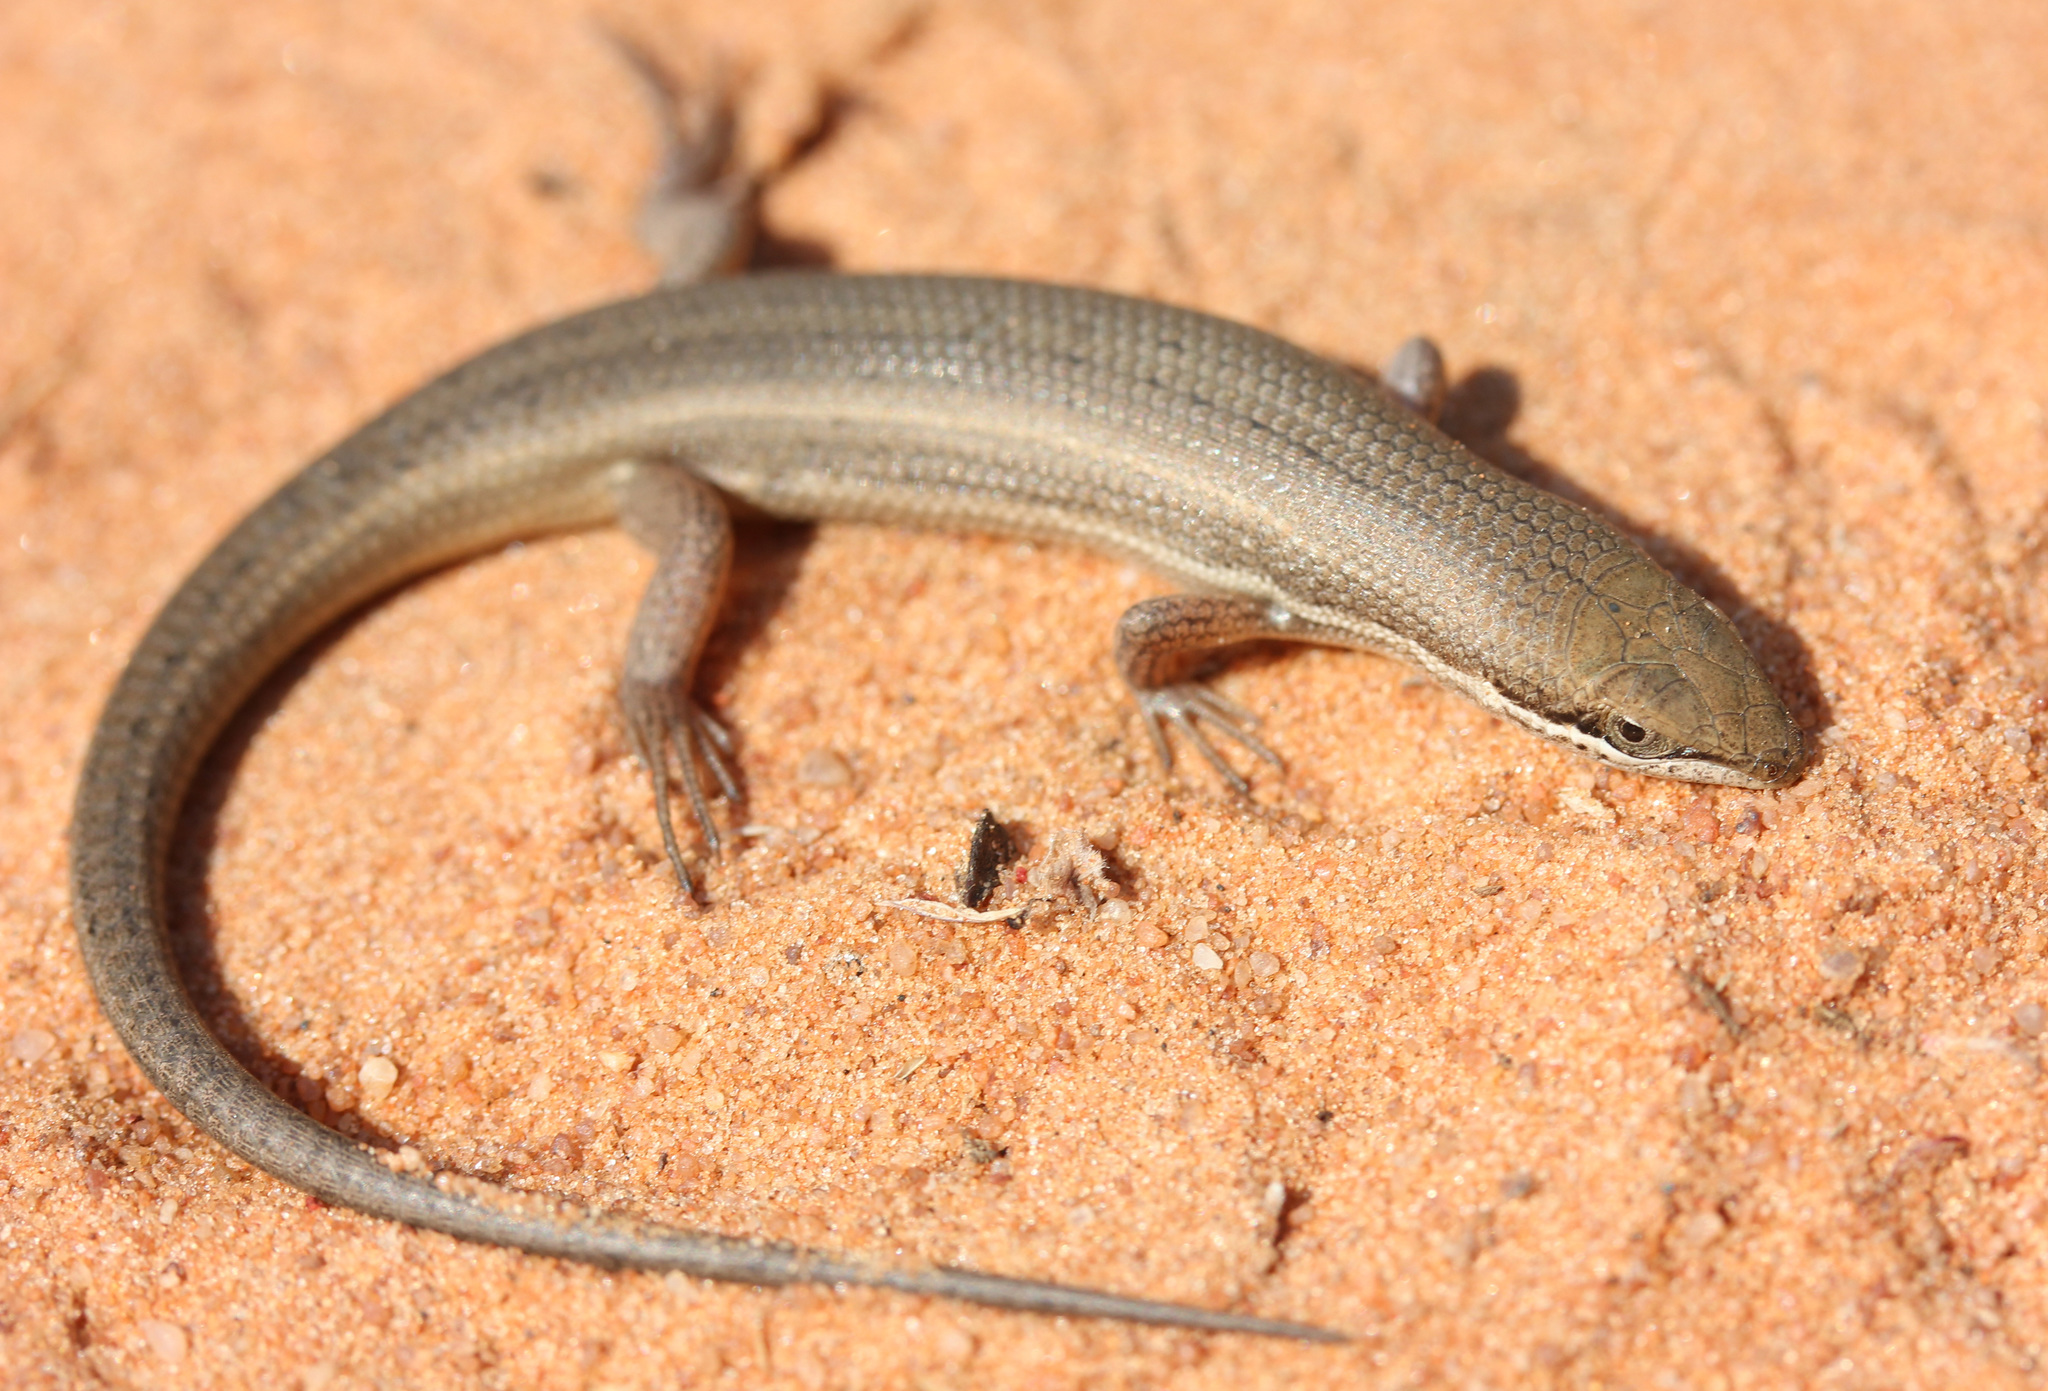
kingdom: Animalia
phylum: Chordata
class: Squamata
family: Scincidae
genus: Trachylepis
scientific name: Trachylepis punctulata
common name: Speckled sand skink
